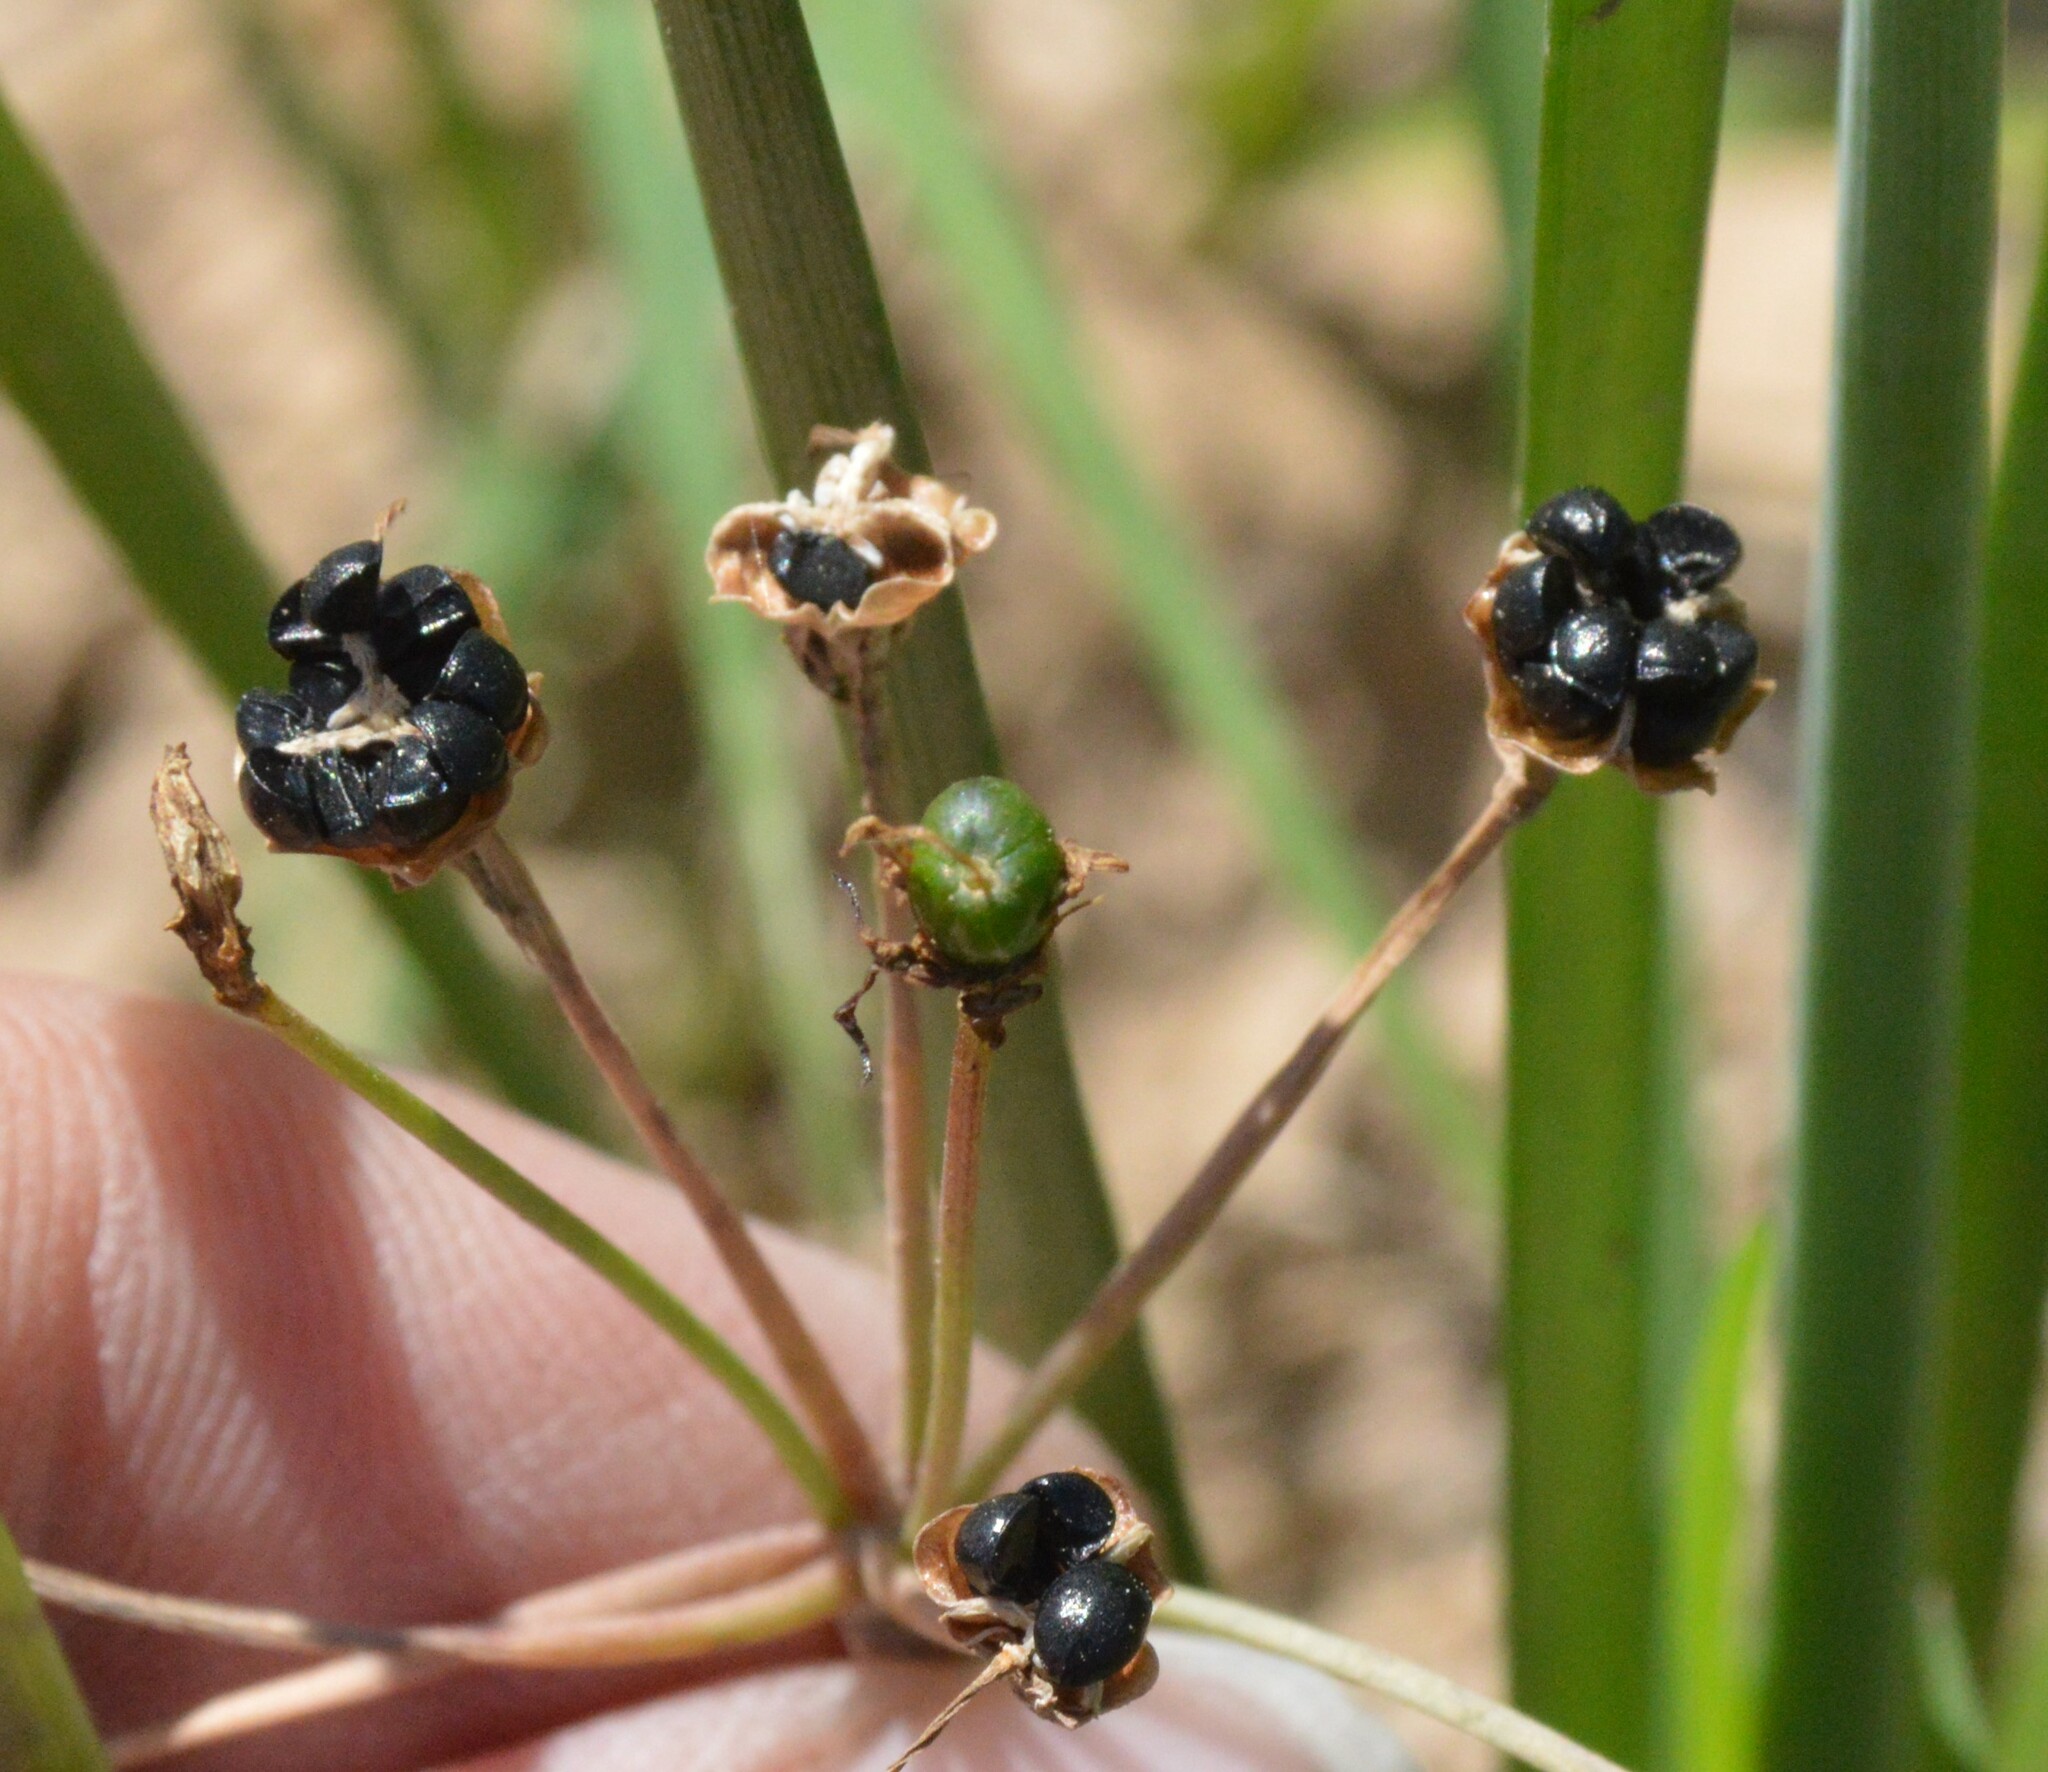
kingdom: Plantae
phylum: Tracheophyta
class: Liliopsida
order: Asparagales
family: Amaryllidaceae
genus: Nothoscordum
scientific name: Nothoscordum bivalve
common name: Crow-poison
